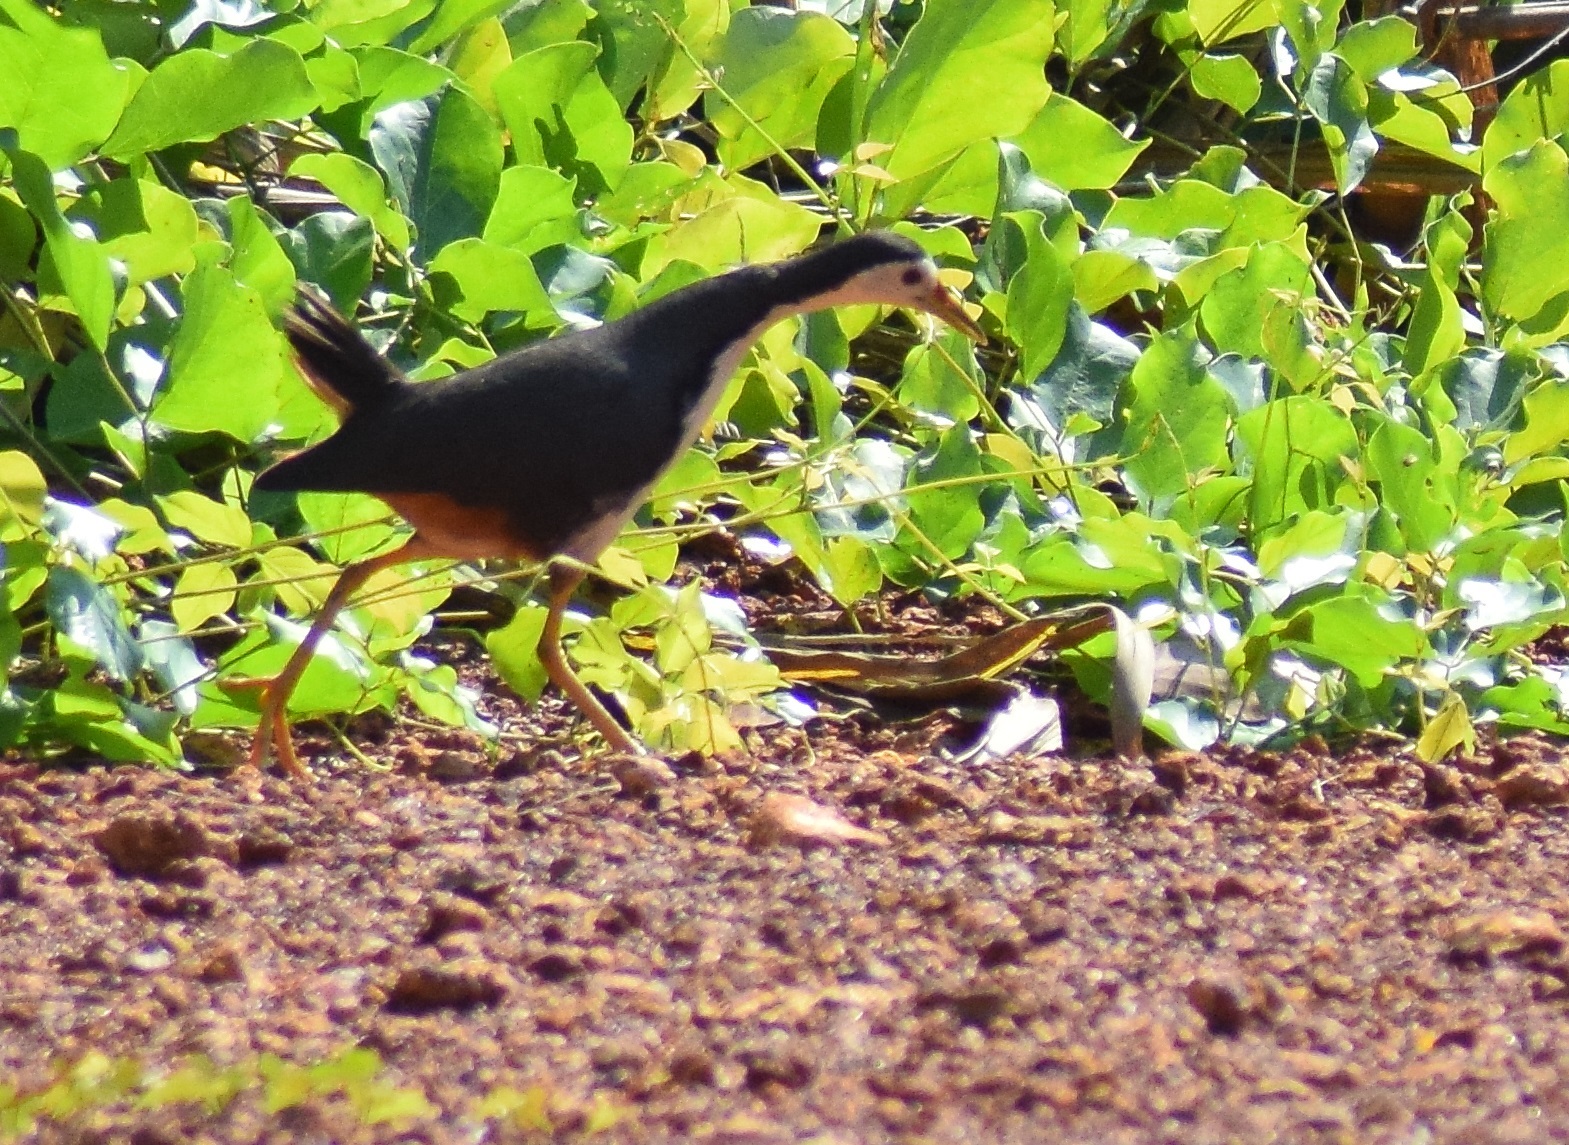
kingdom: Animalia
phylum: Chordata
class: Aves
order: Gruiformes
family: Rallidae
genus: Amaurornis
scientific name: Amaurornis phoenicurus
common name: White-breasted waterhen
